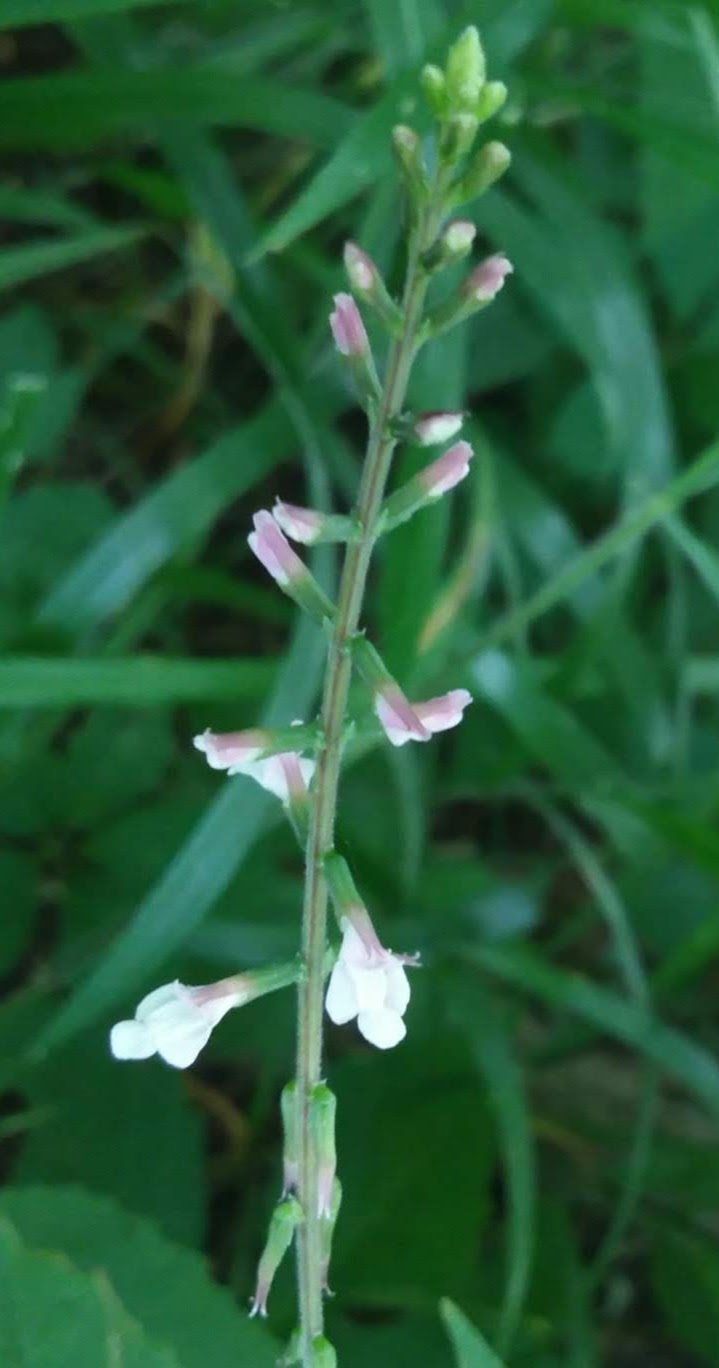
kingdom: Plantae
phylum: Tracheophyta
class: Magnoliopsida
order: Lamiales
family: Phrymaceae
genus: Phryma
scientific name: Phryma leptostachya
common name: American lopseed
